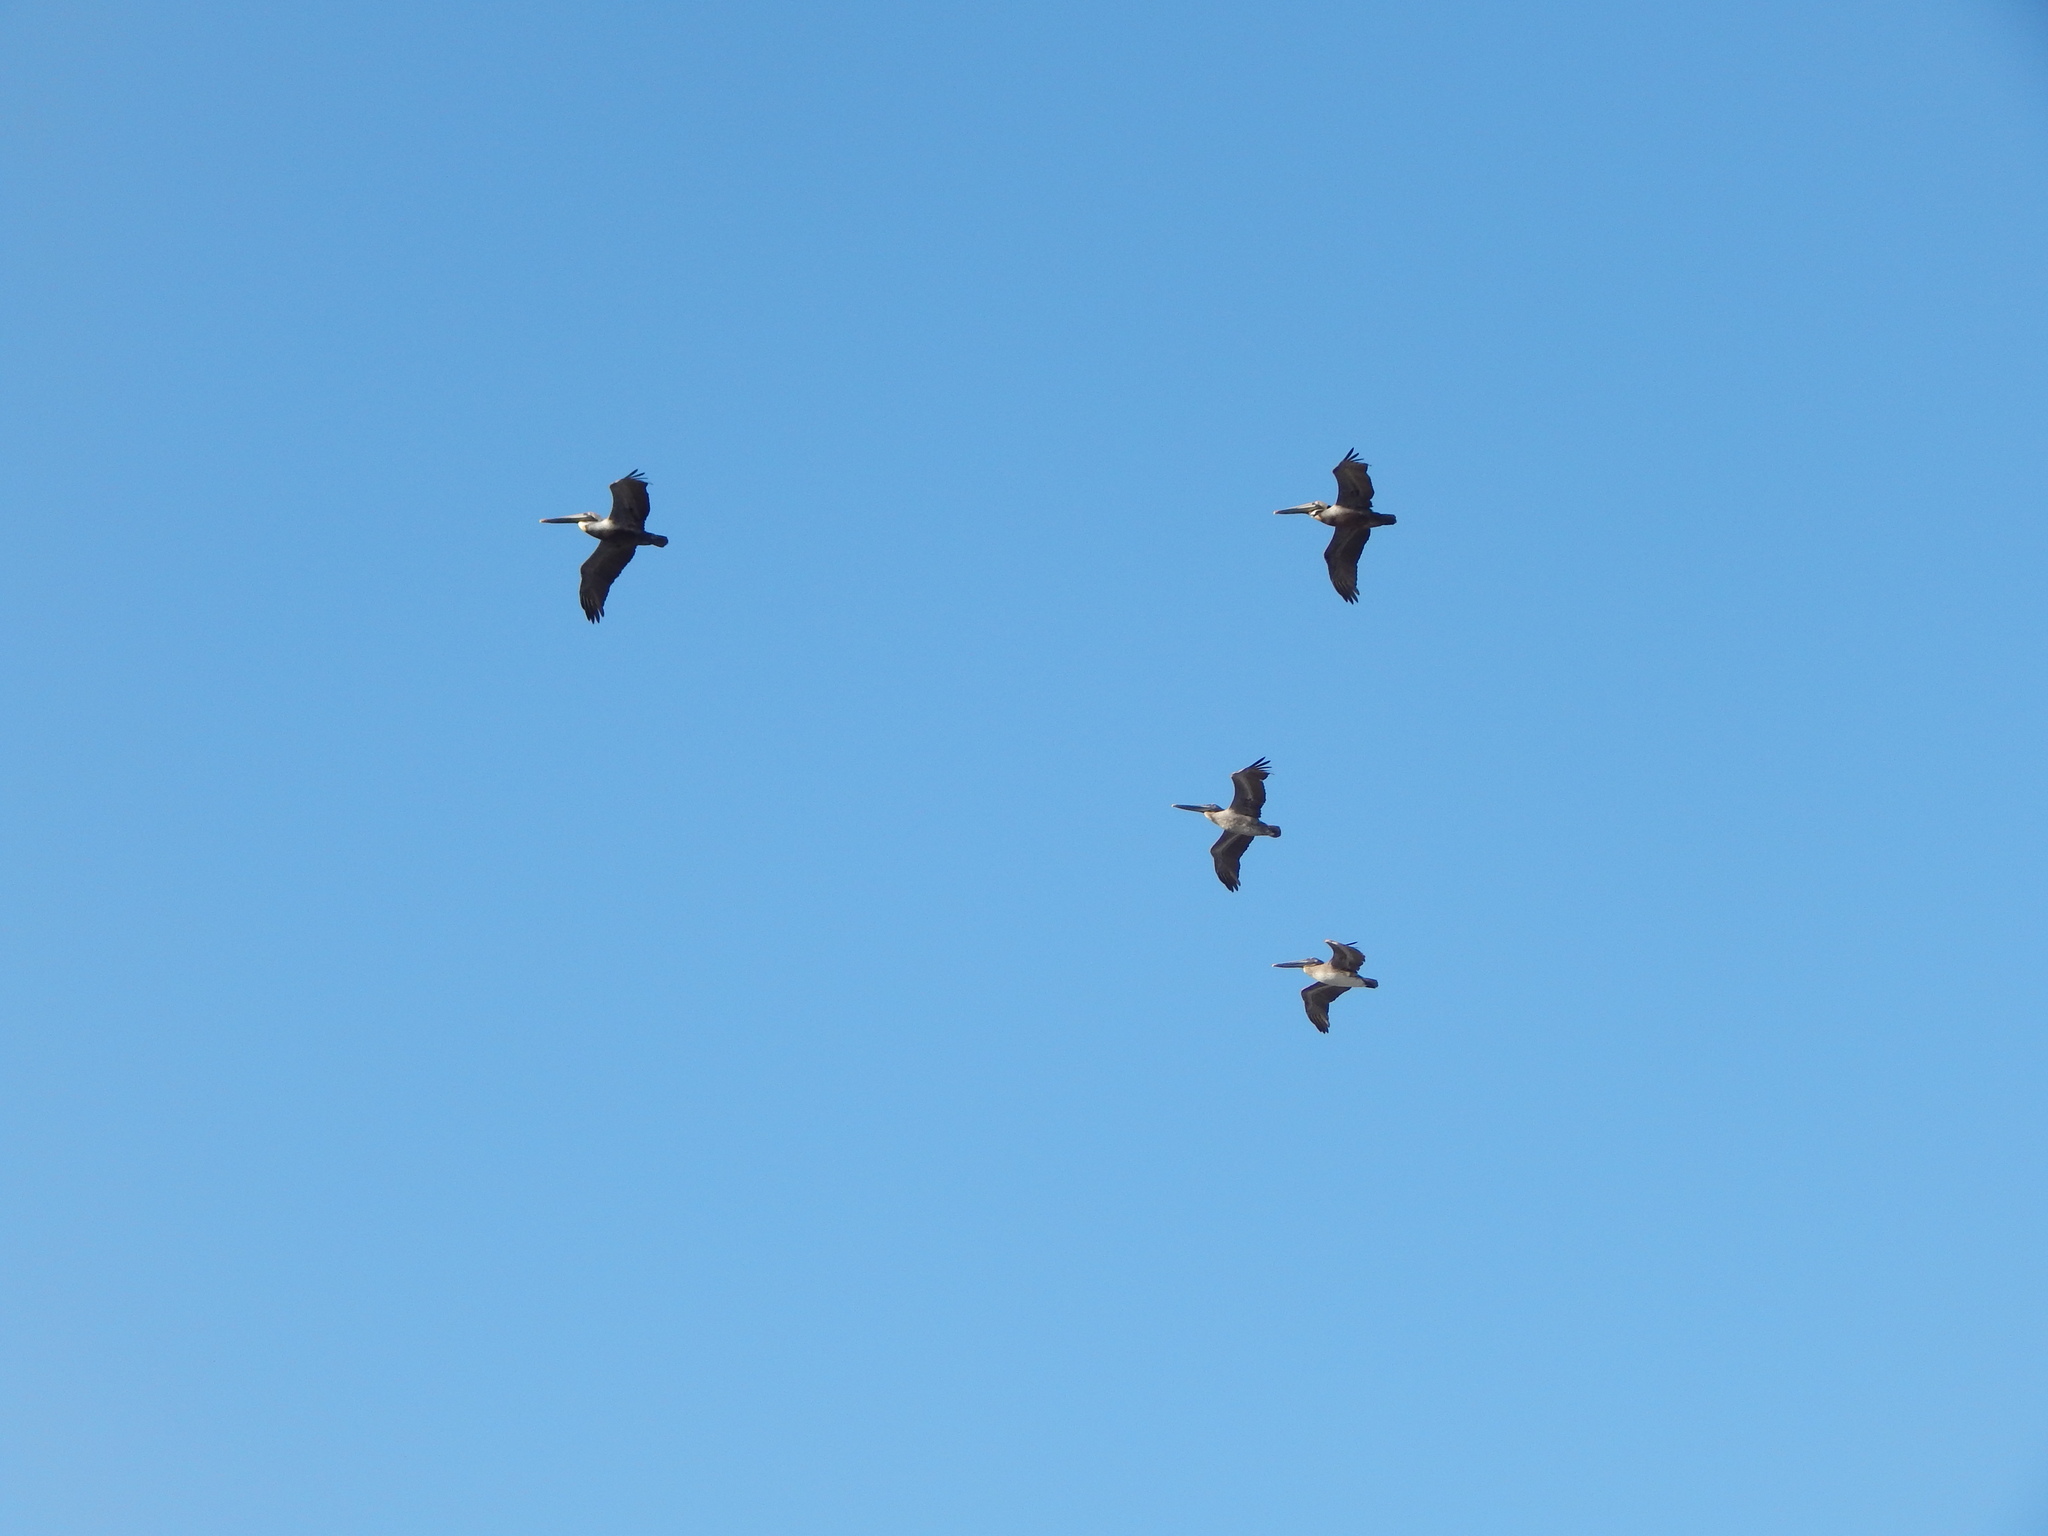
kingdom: Animalia
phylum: Chordata
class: Aves
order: Pelecaniformes
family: Pelecanidae
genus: Pelecanus
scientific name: Pelecanus occidentalis
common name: Brown pelican
